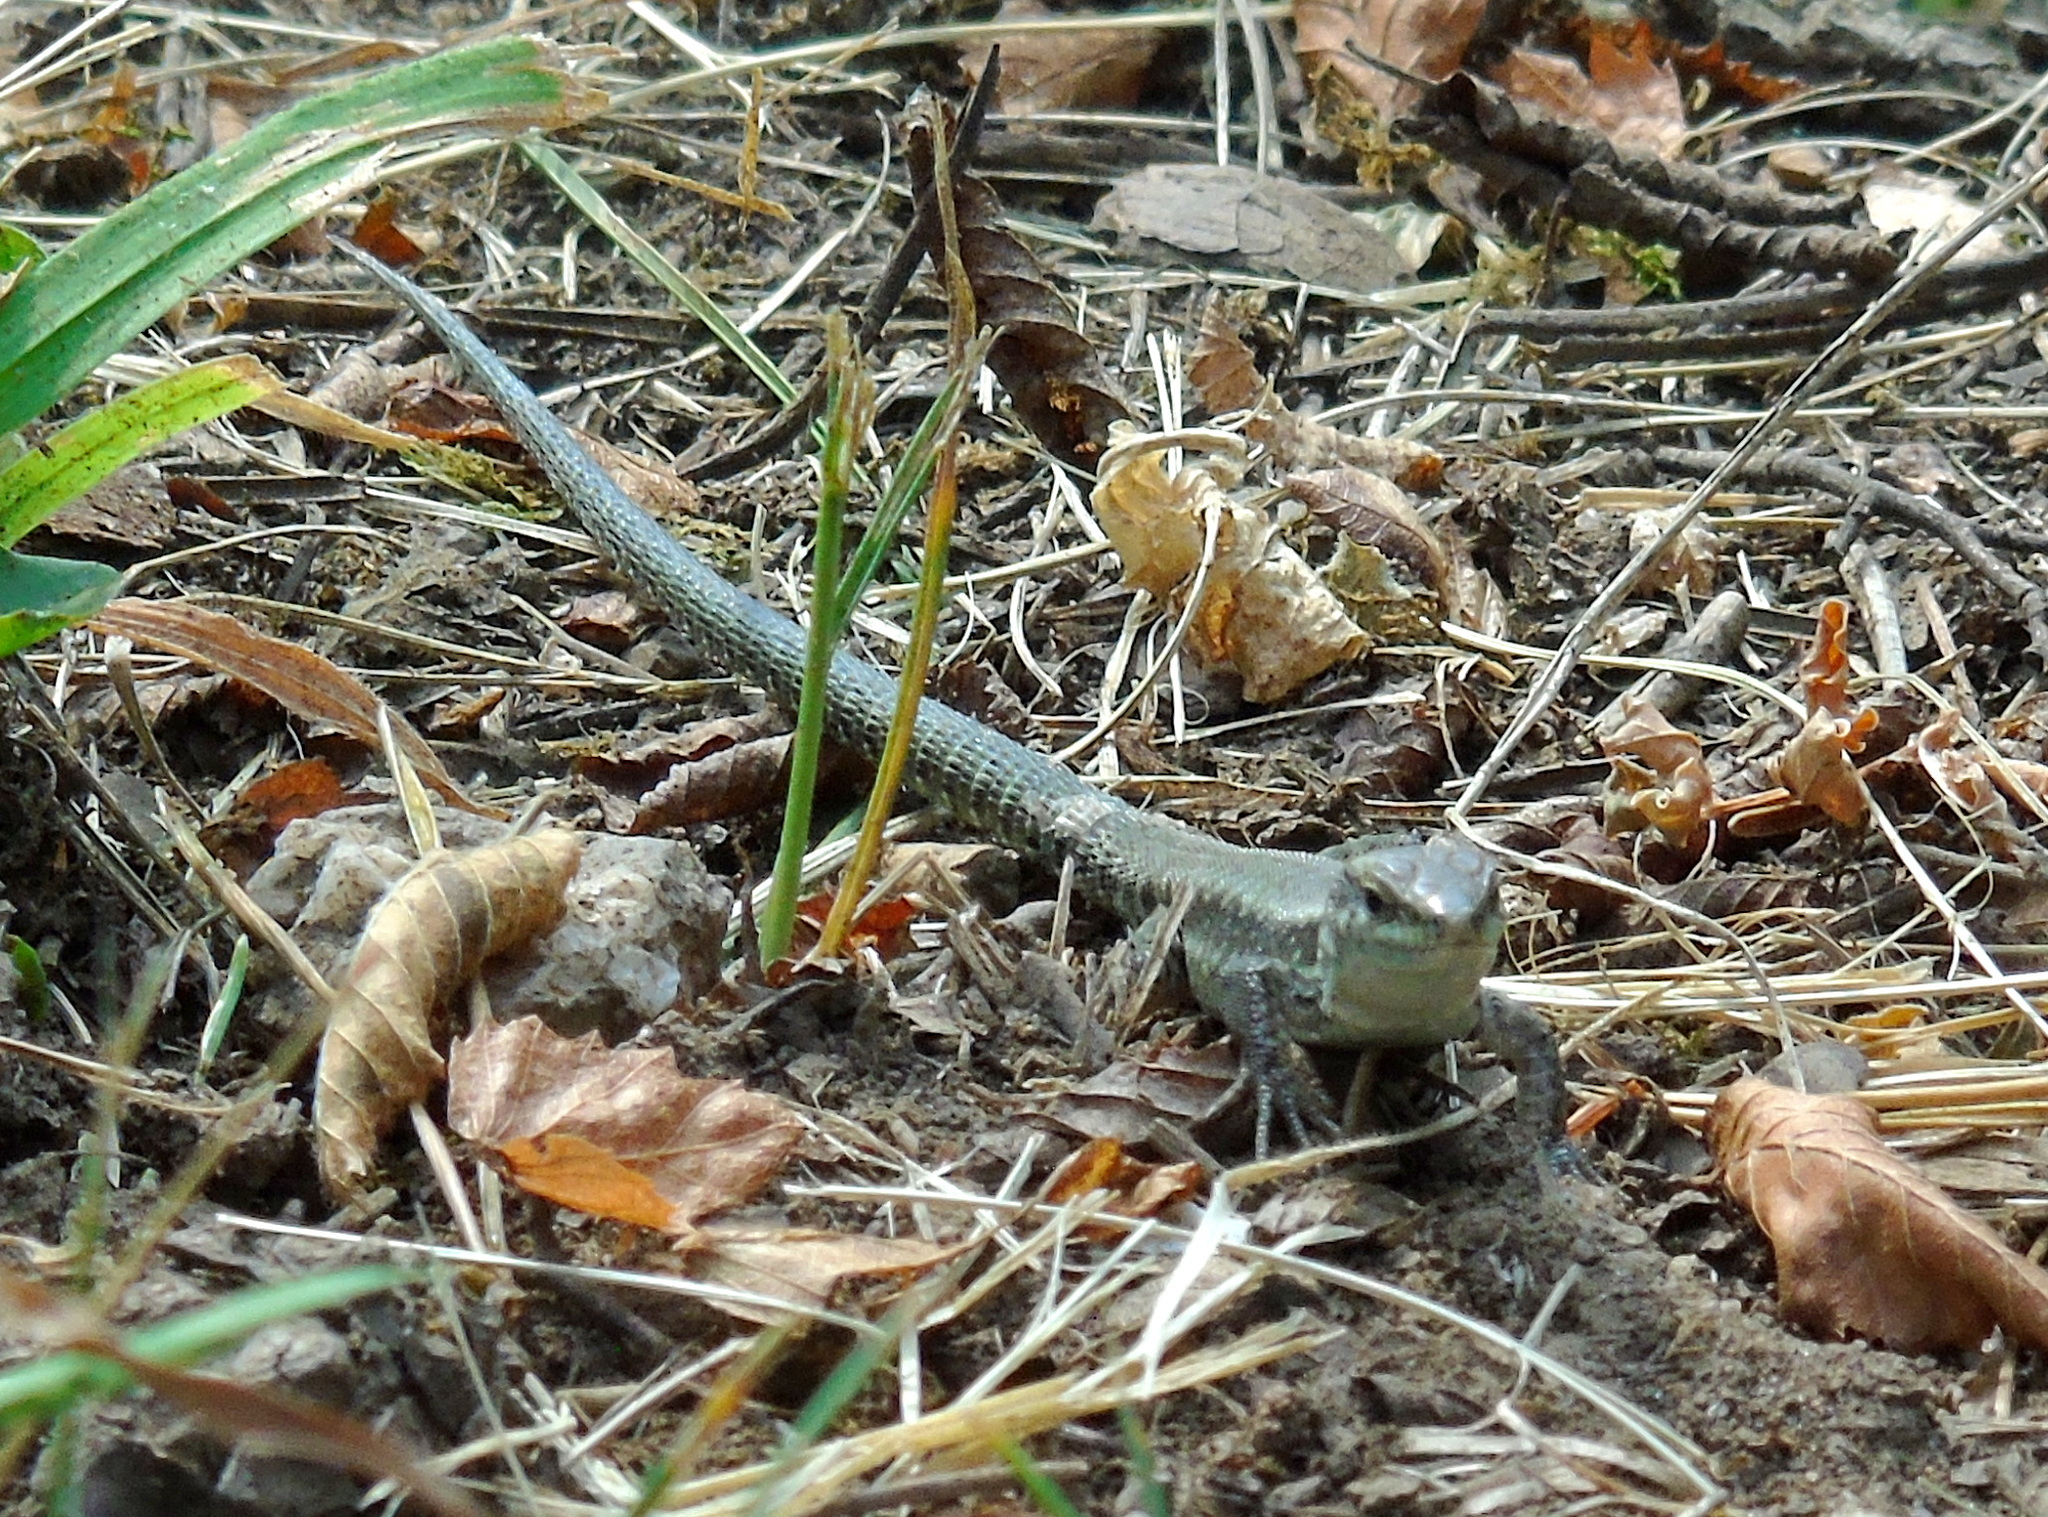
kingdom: Animalia
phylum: Chordata
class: Squamata
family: Lacertidae
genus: Podarcis
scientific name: Podarcis muralis
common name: Common wall lizard
